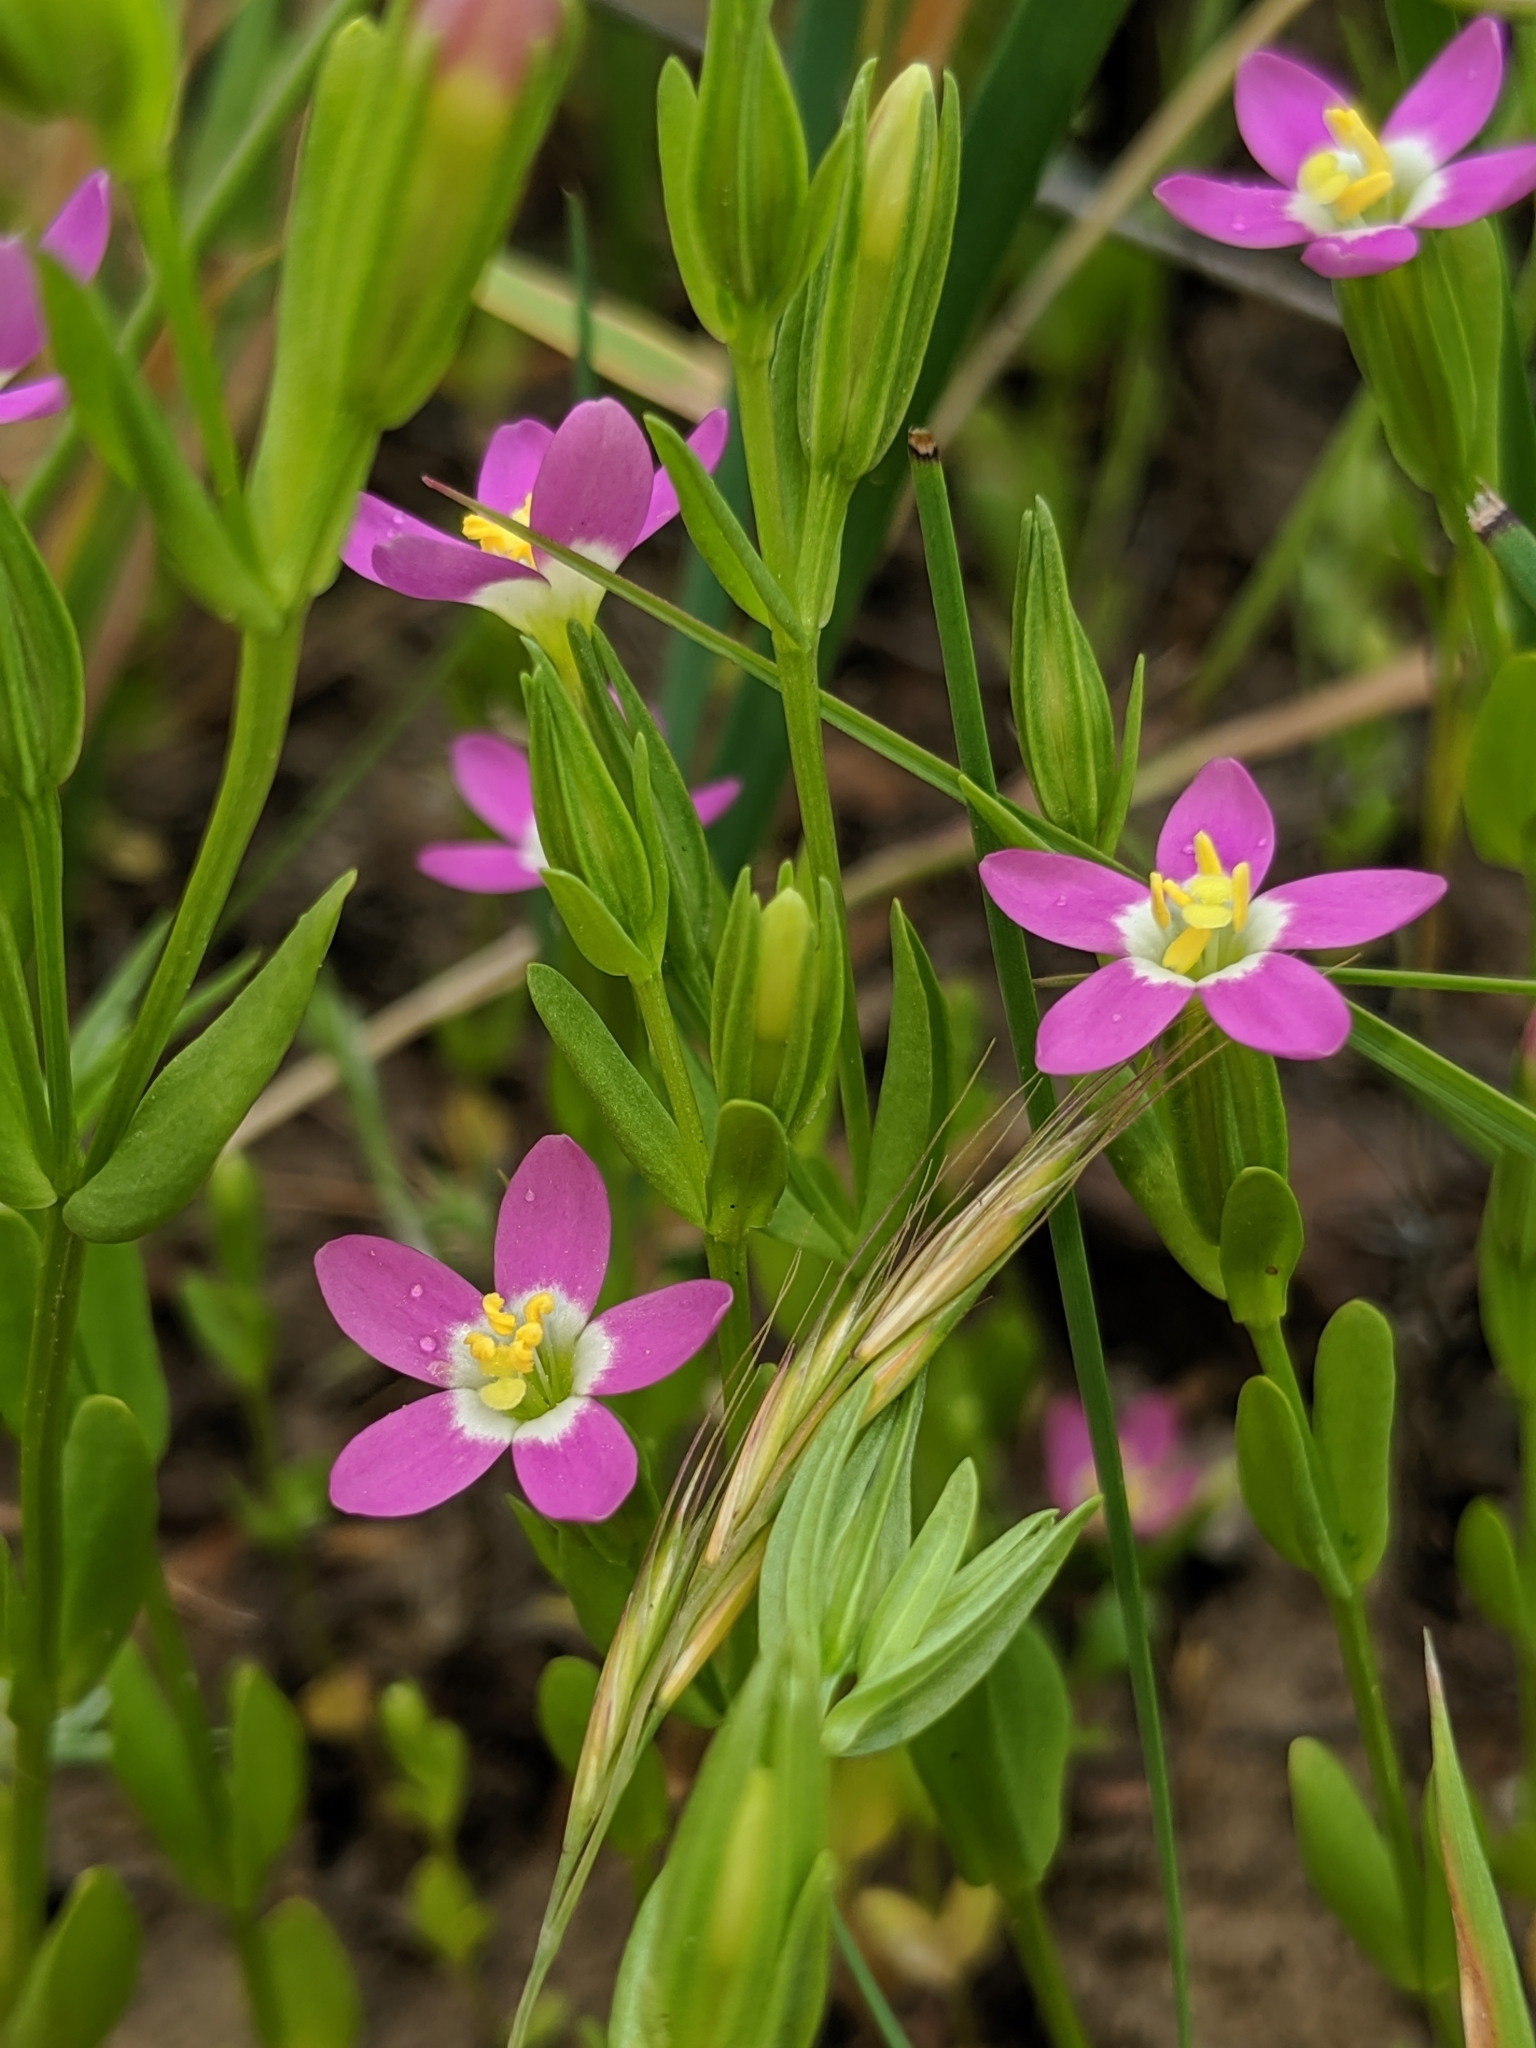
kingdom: Plantae
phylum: Tracheophyta
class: Magnoliopsida
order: Gentianales
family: Gentianaceae
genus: Zeltnera
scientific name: Zeltnera davyi
